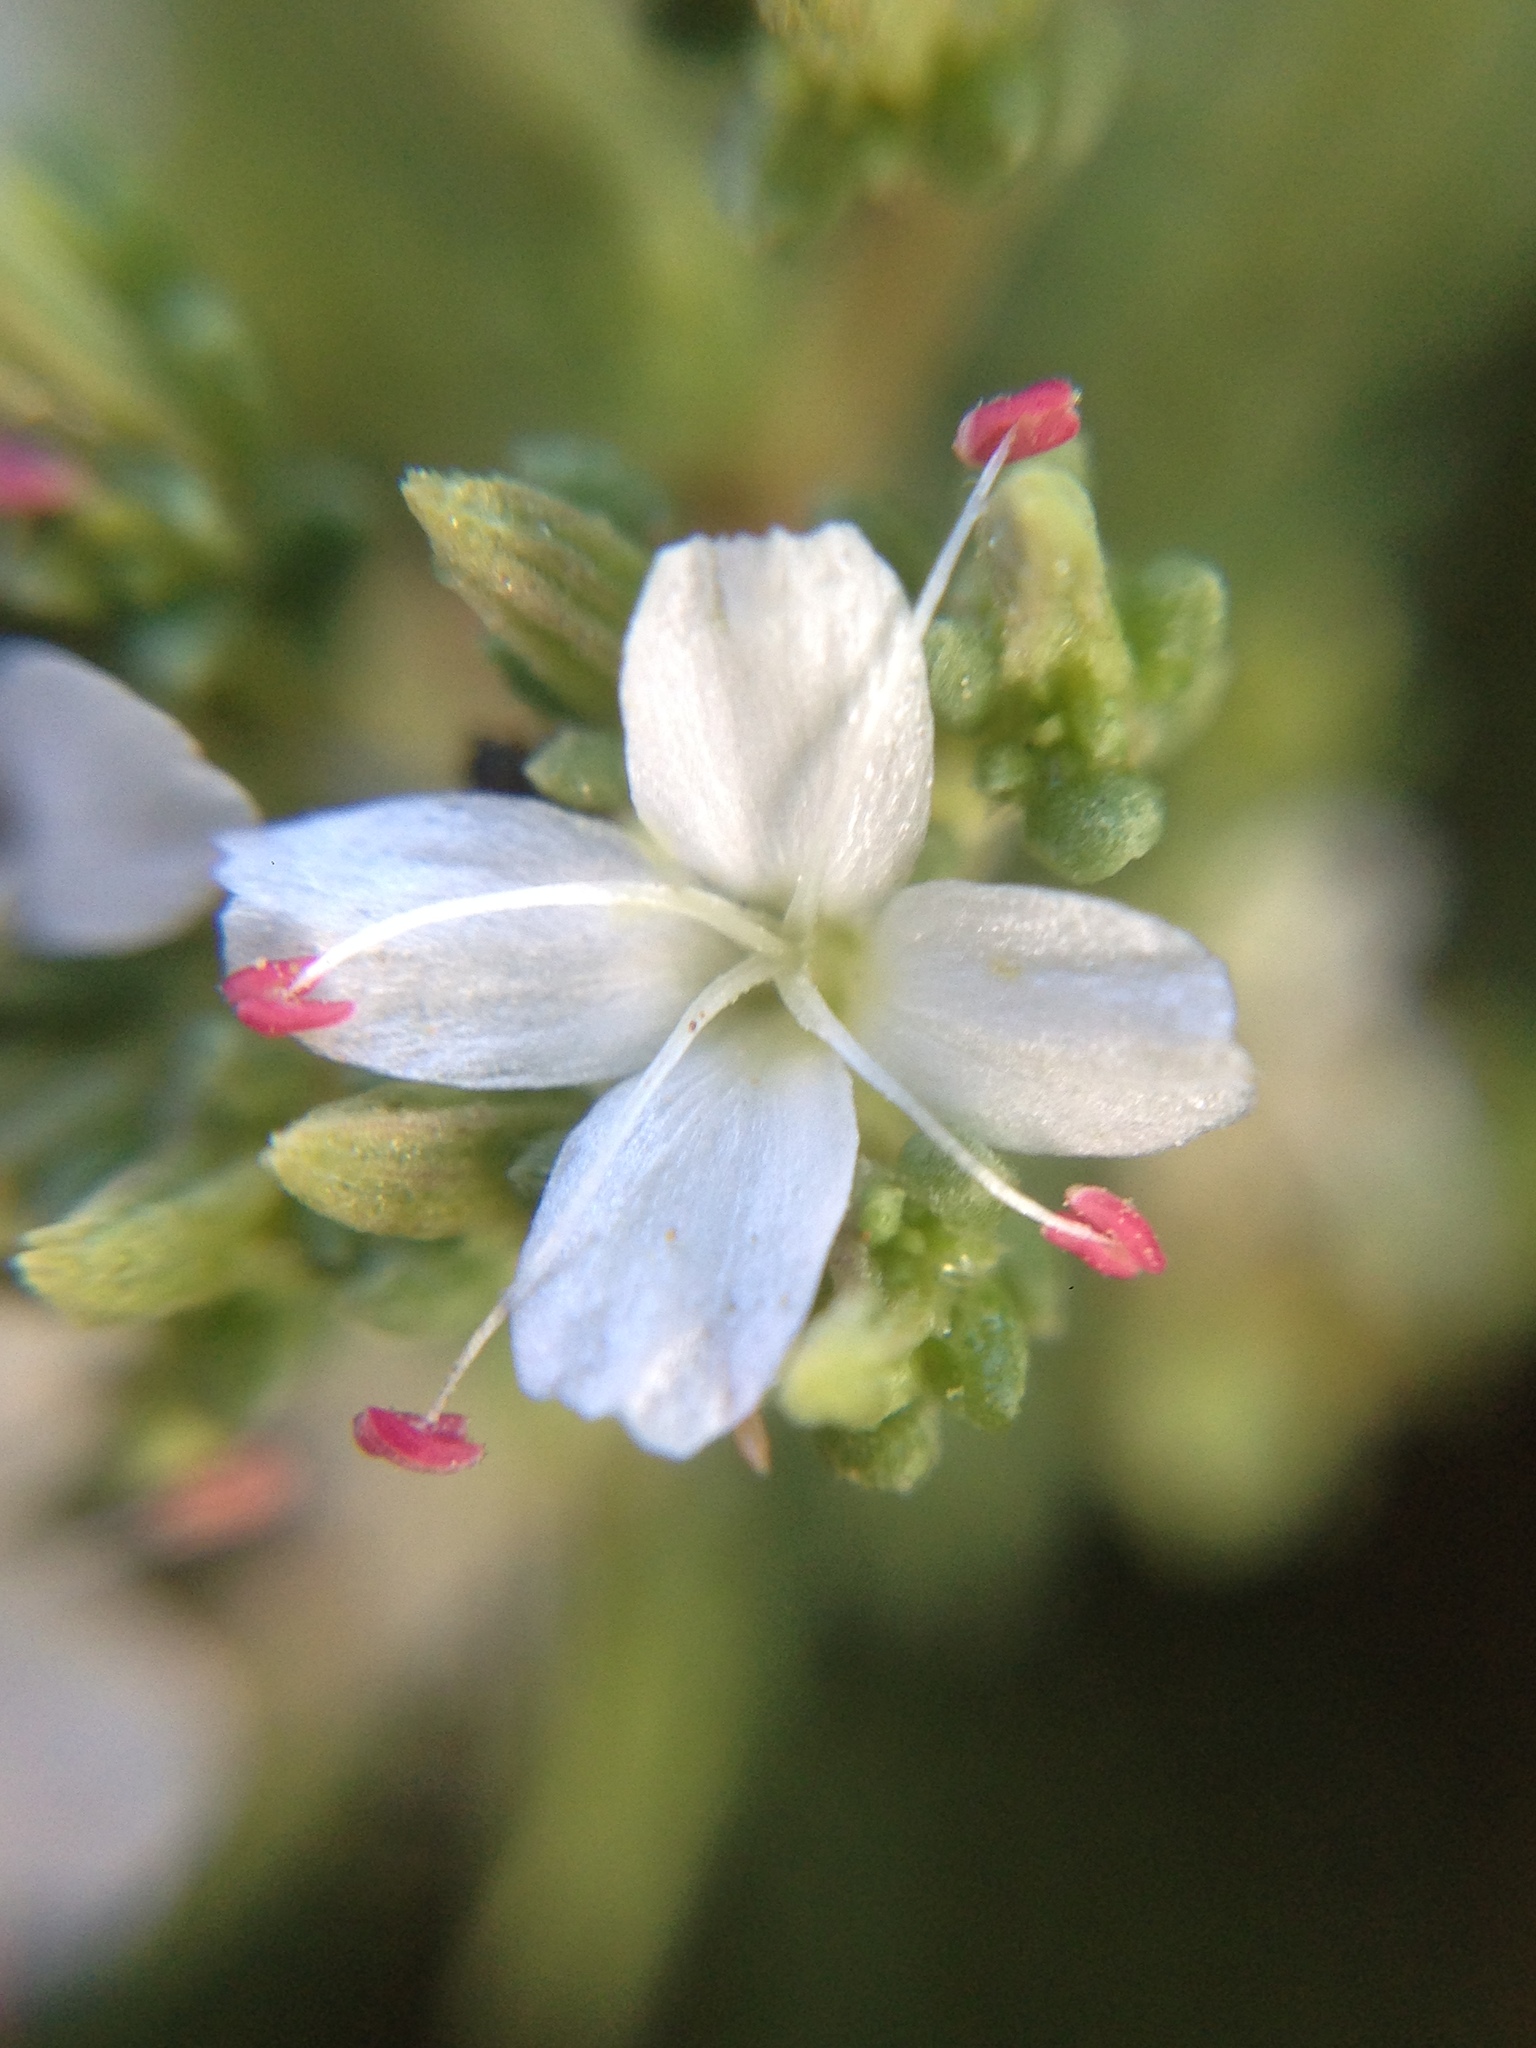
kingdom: Plantae
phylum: Tracheophyta
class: Magnoliopsida
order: Caryophyllales
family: Frankeniaceae
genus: Frankenia
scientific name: Frankenia palmeri
